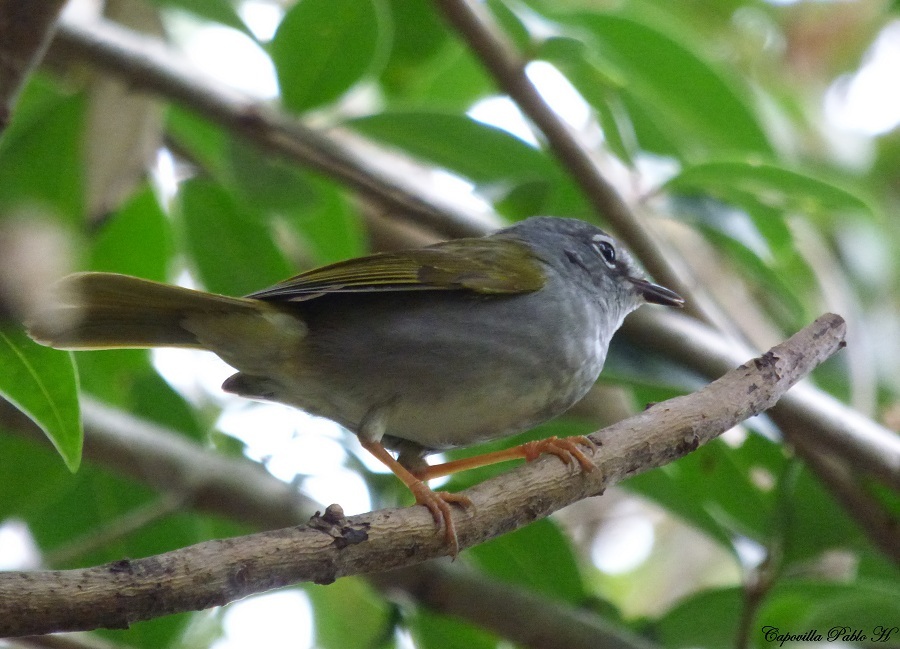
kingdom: Animalia
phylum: Chordata
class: Aves
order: Passeriformes
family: Parulidae
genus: Myiothlypis
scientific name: Myiothlypis leucoblephara
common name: White-rimmed warbler
